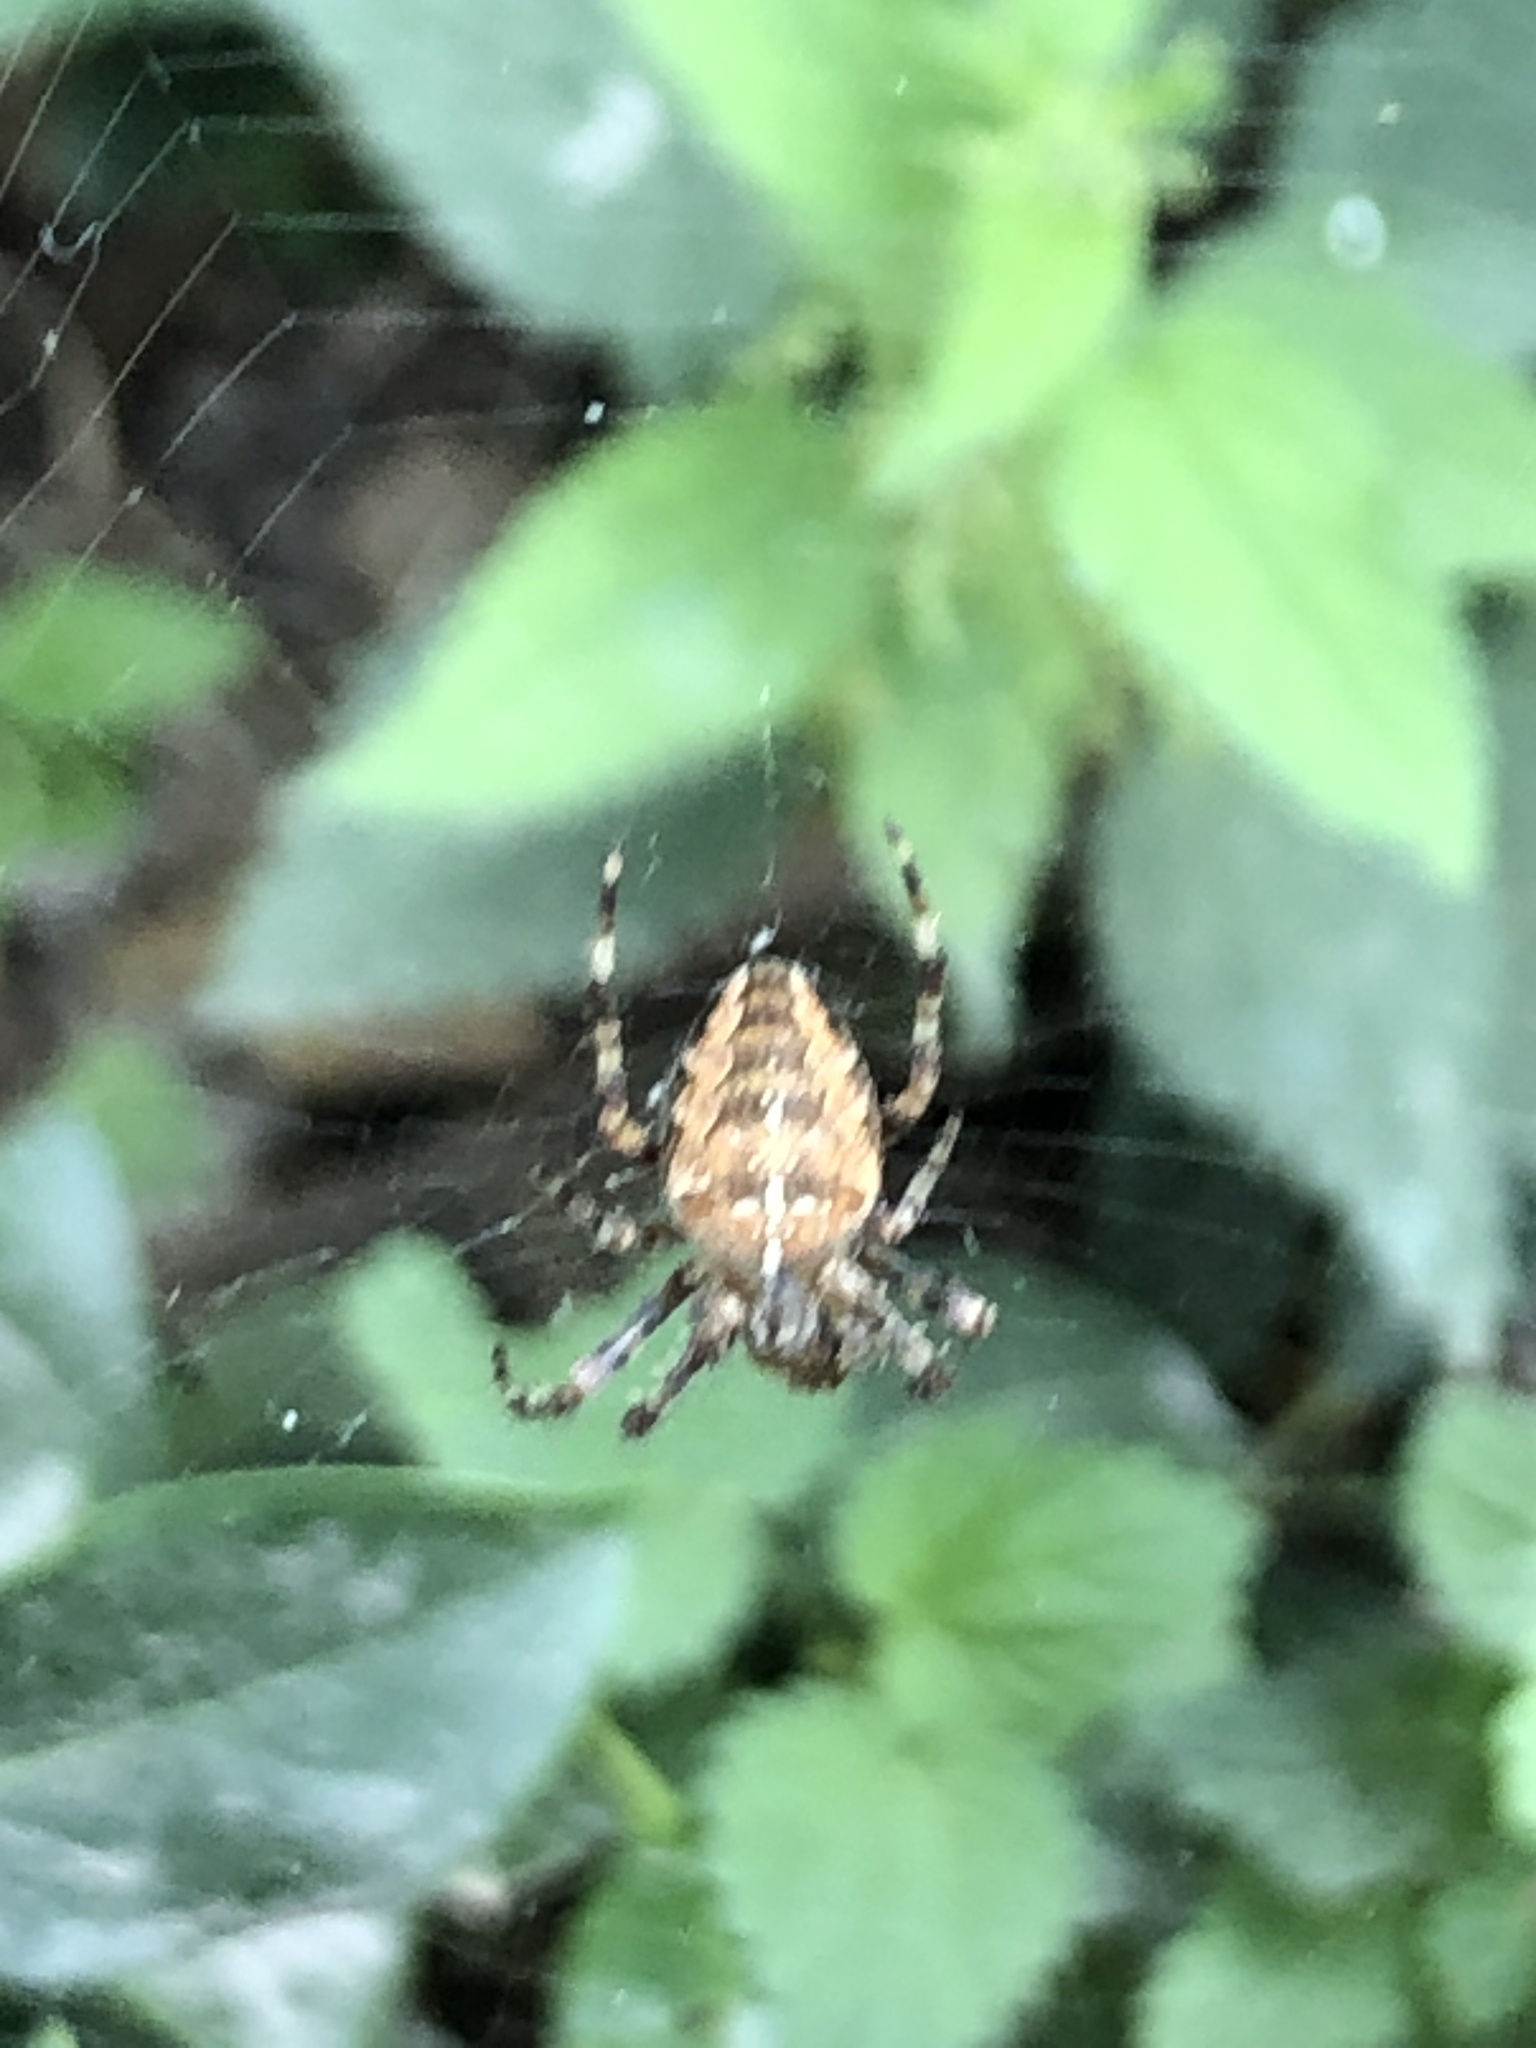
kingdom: Animalia
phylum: Arthropoda
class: Arachnida
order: Araneae
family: Araneidae
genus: Araneus
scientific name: Araneus diadematus
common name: Cross orbweaver
